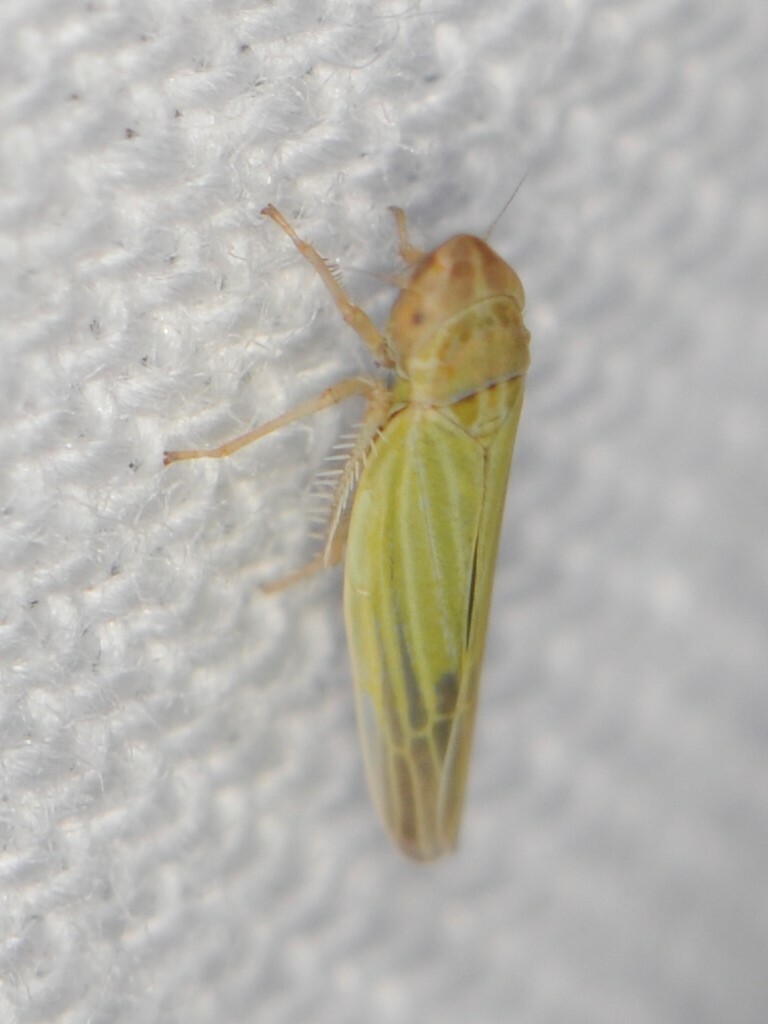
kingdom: Animalia
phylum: Arthropoda
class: Insecta
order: Hemiptera
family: Cicadellidae
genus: Dikraneura
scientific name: Dikraneura
